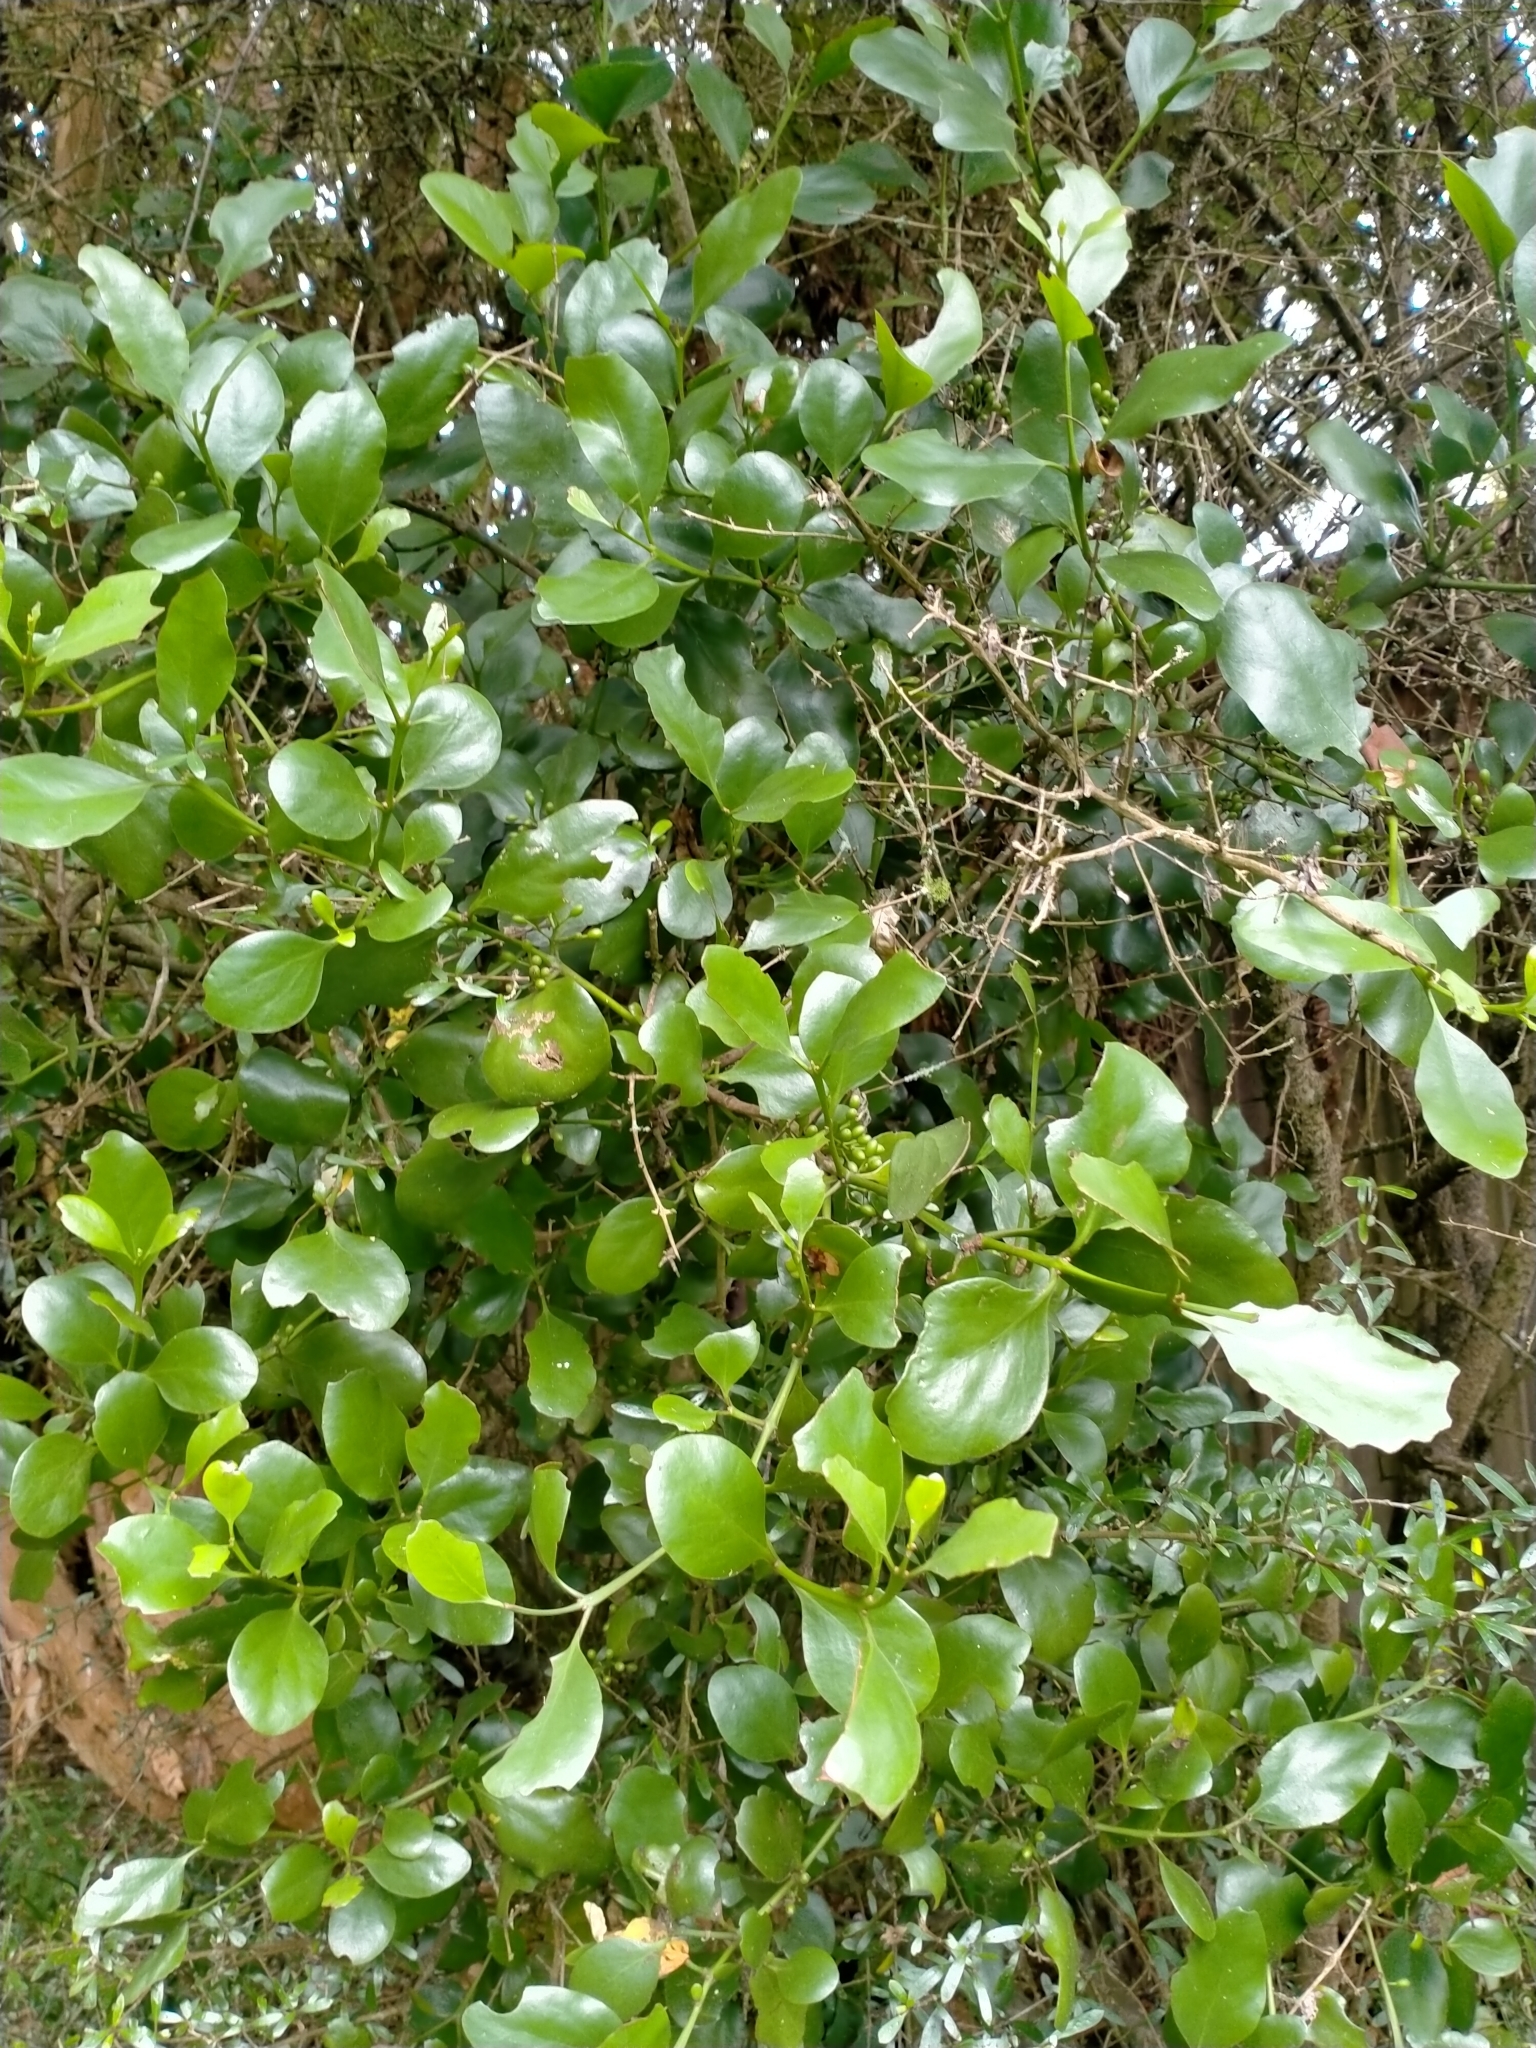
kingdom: Plantae
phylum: Tracheophyta
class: Magnoliopsida
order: Santalales
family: Loranthaceae
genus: Ileostylus
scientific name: Ileostylus micranthus
